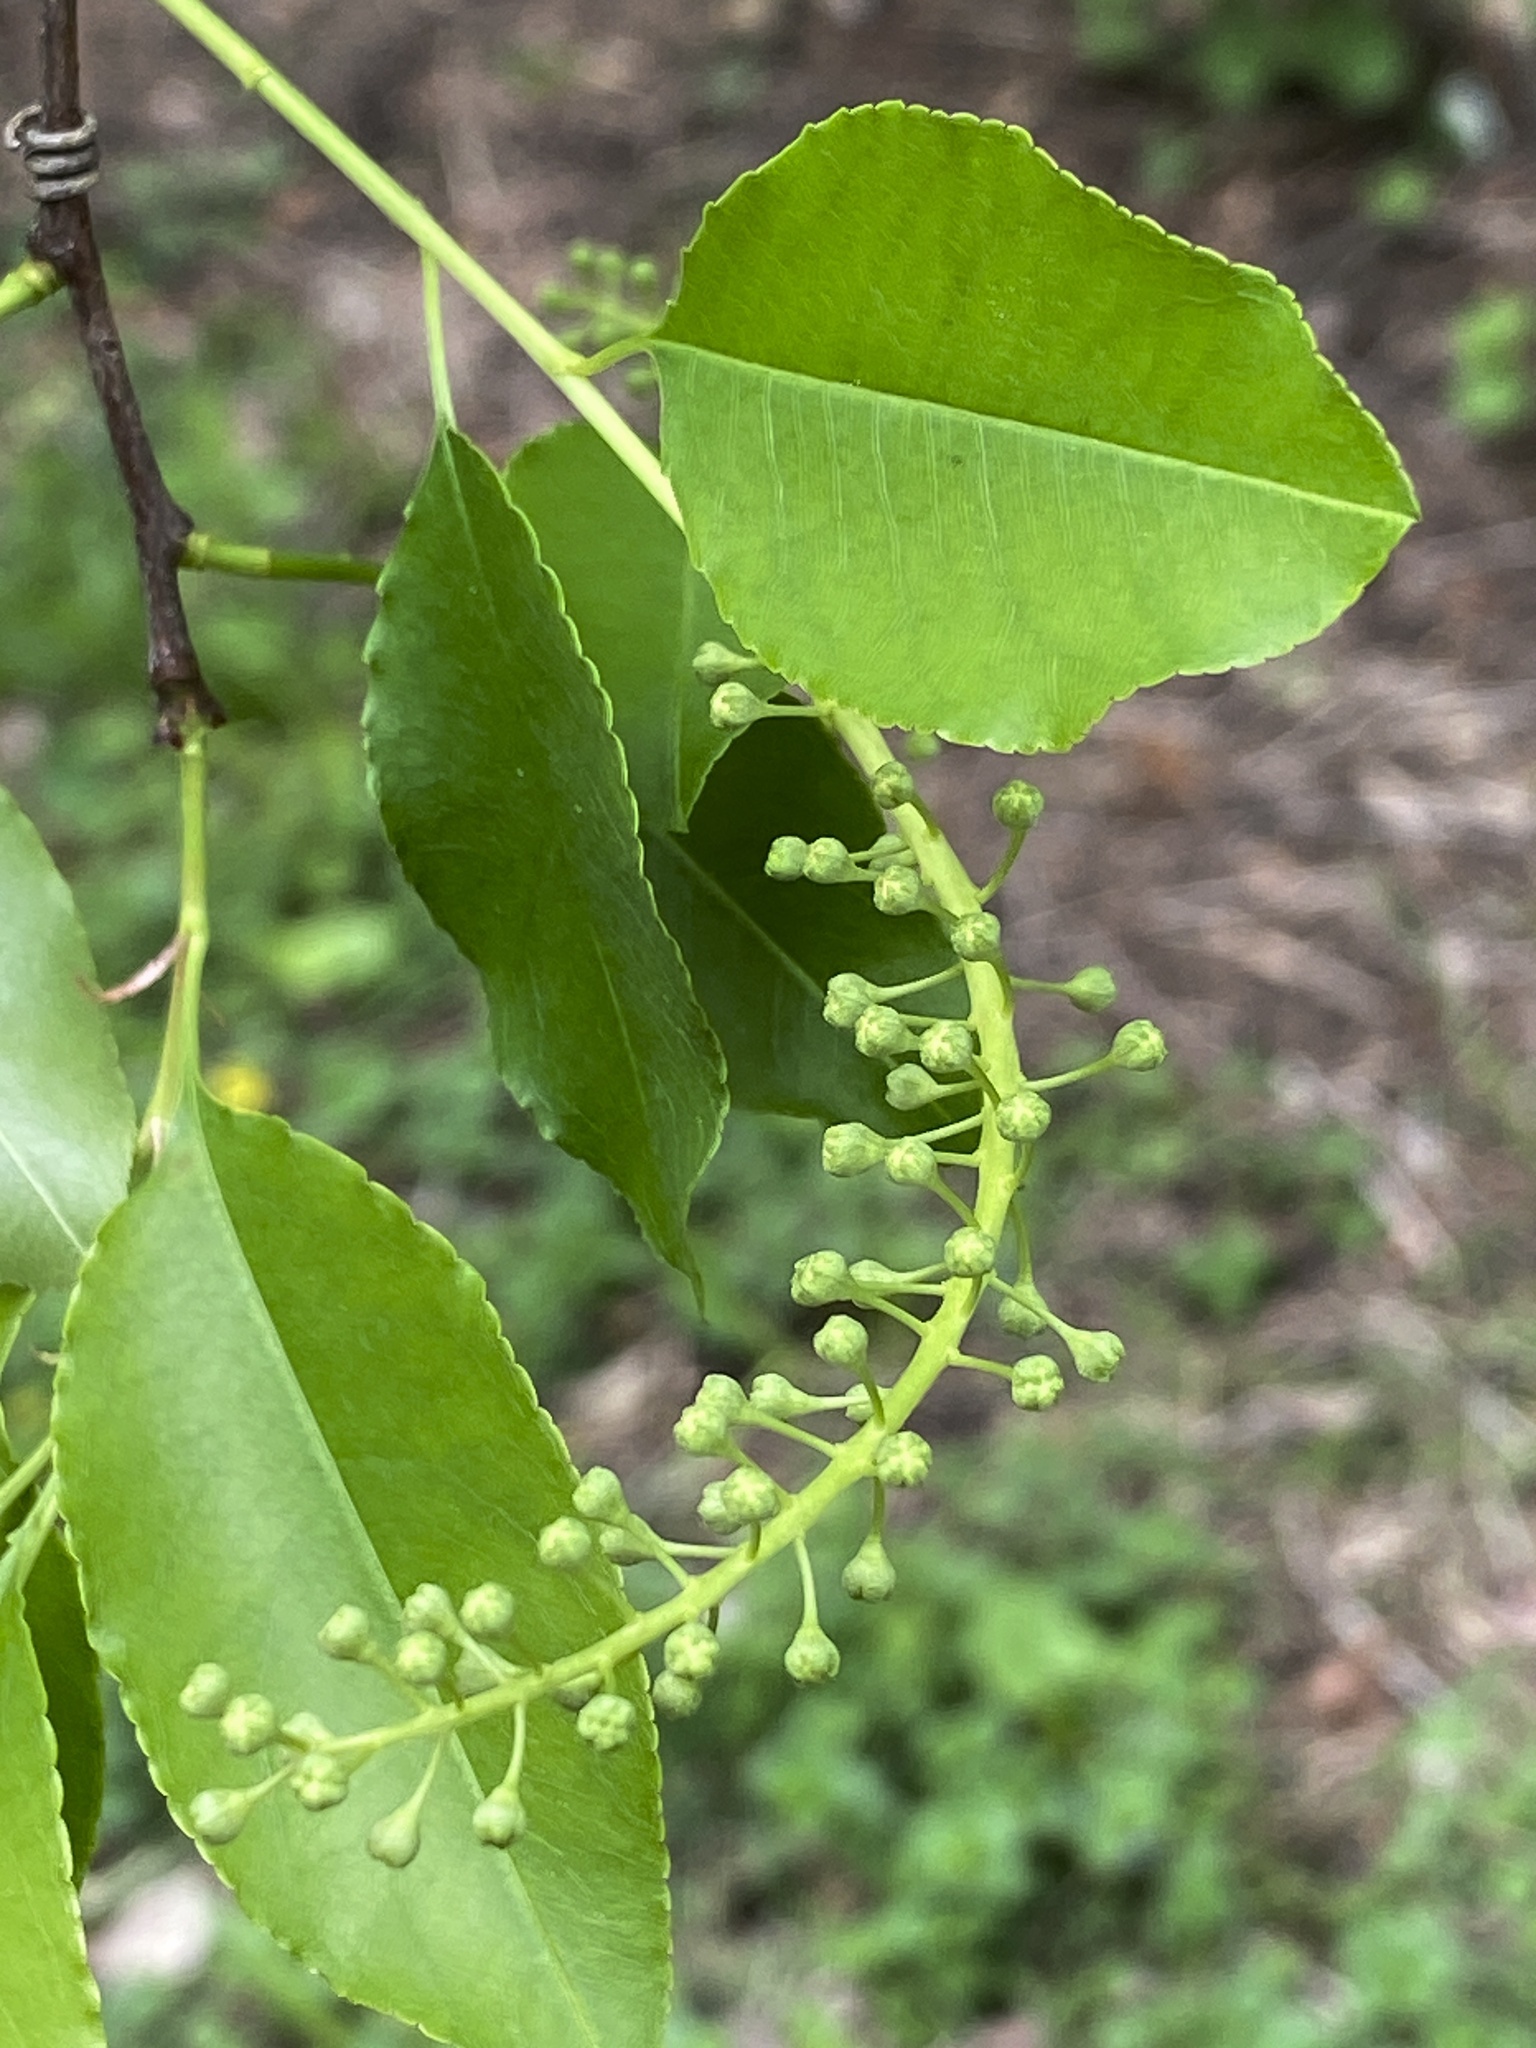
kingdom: Plantae
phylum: Tracheophyta
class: Magnoliopsida
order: Rosales
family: Rosaceae
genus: Prunus
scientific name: Prunus serotina
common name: Black cherry
